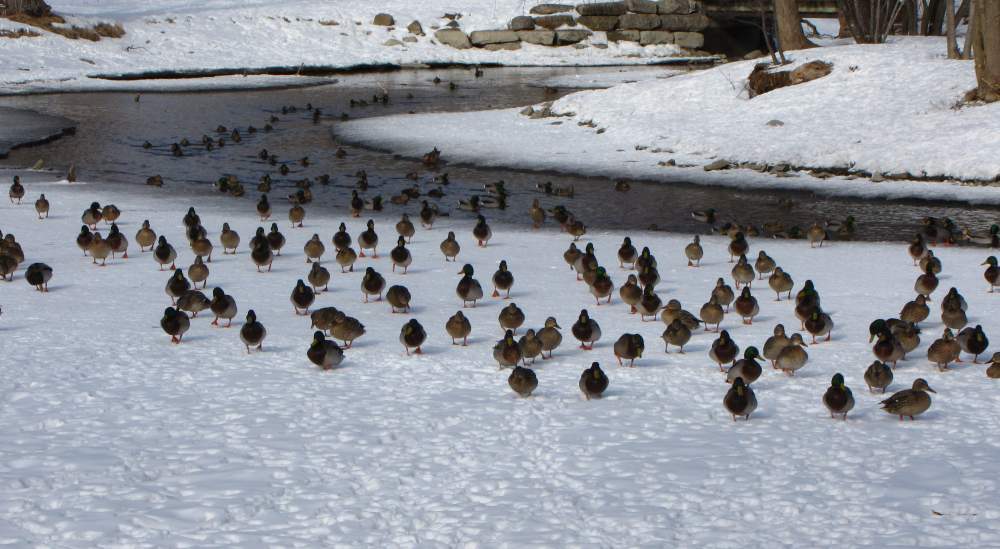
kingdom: Animalia
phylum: Chordata
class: Aves
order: Anseriformes
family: Anatidae
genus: Anas
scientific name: Anas platyrhynchos
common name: Mallard
